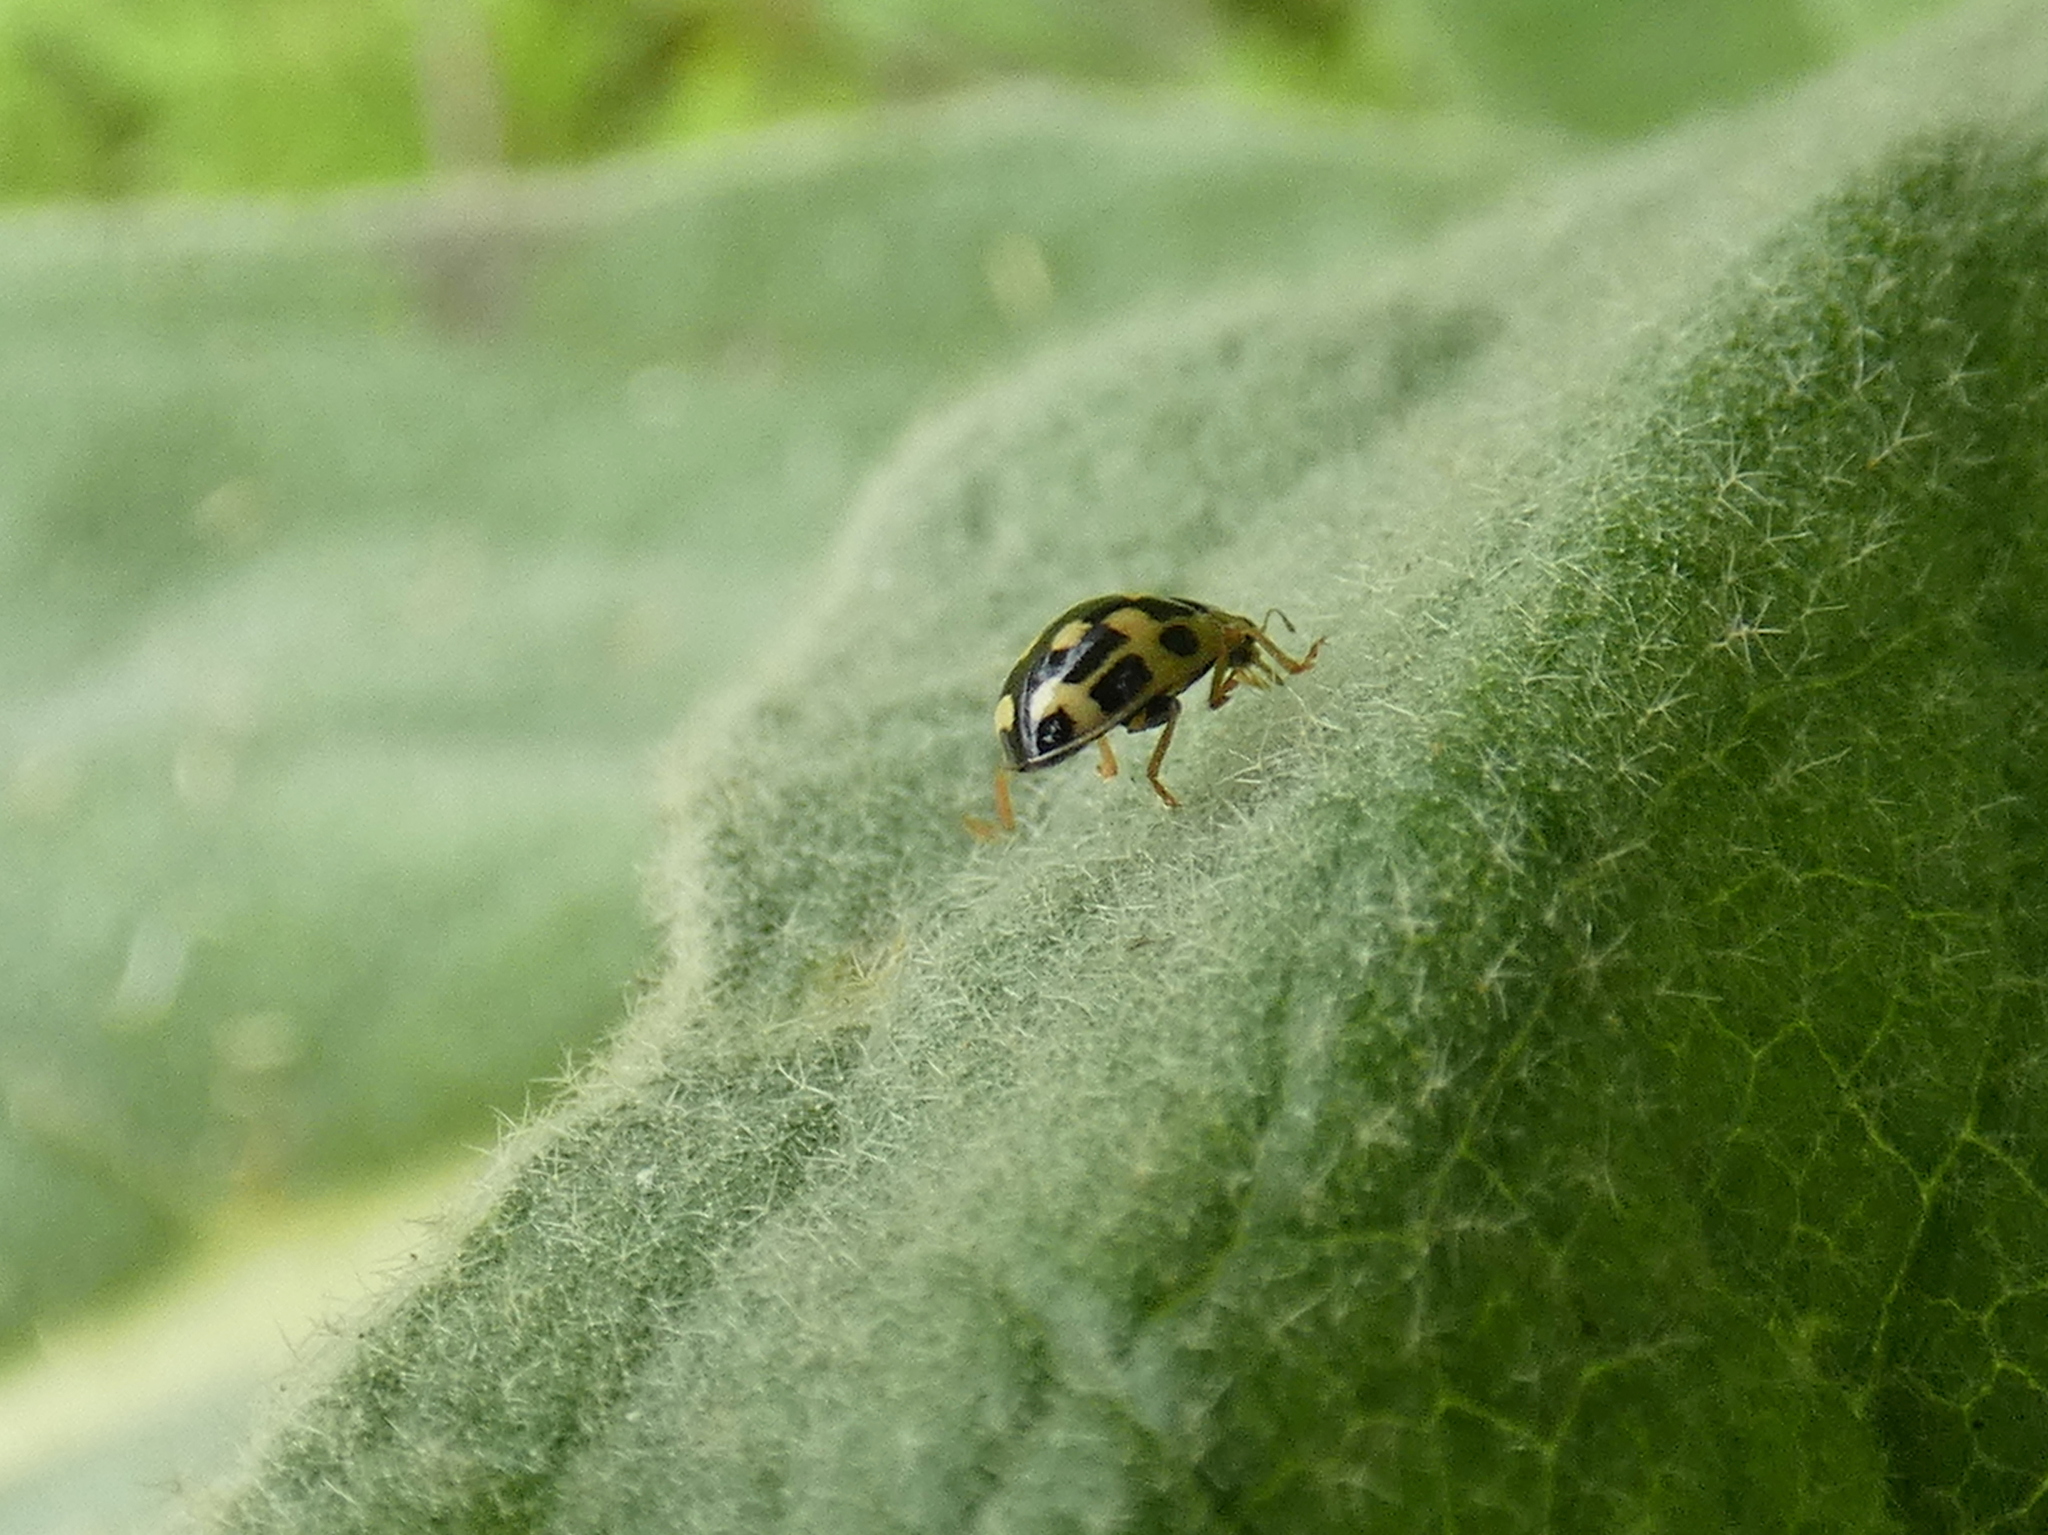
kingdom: Animalia
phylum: Arthropoda
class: Insecta
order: Coleoptera
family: Coccinellidae
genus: Propylaea
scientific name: Propylaea quatuordecimpunctata
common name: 14-spotted ladybird beetle
